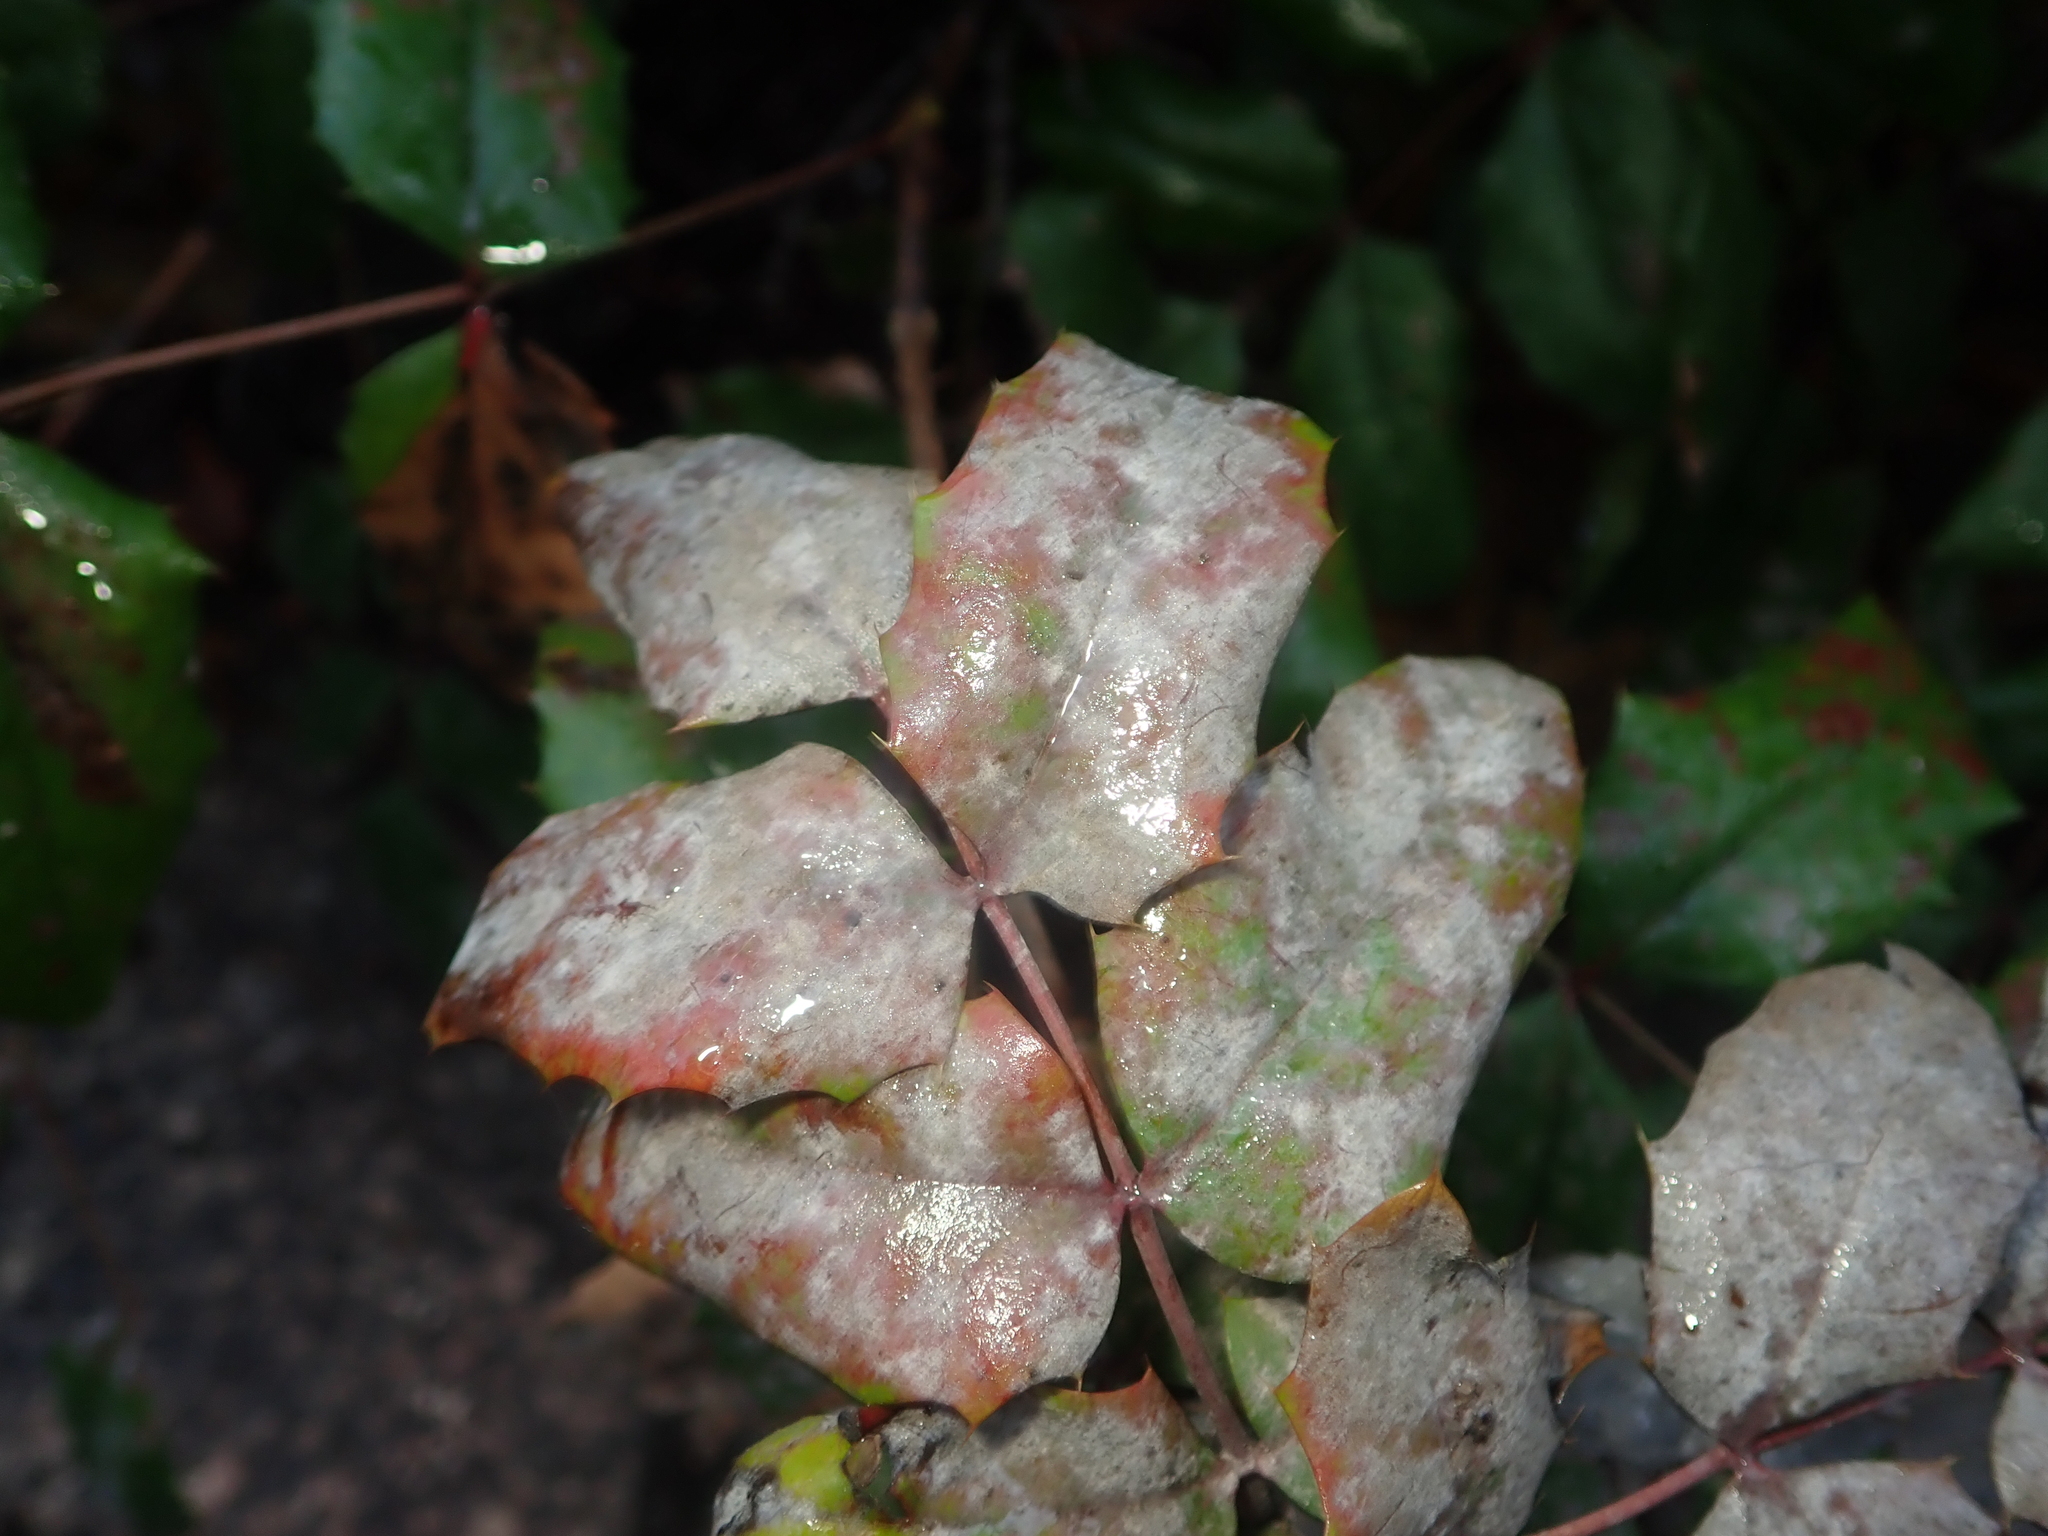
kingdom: Fungi
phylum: Ascomycota
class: Leotiomycetes
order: Helotiales
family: Erysiphaceae
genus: Erysiphe
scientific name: Erysiphe berberidis
